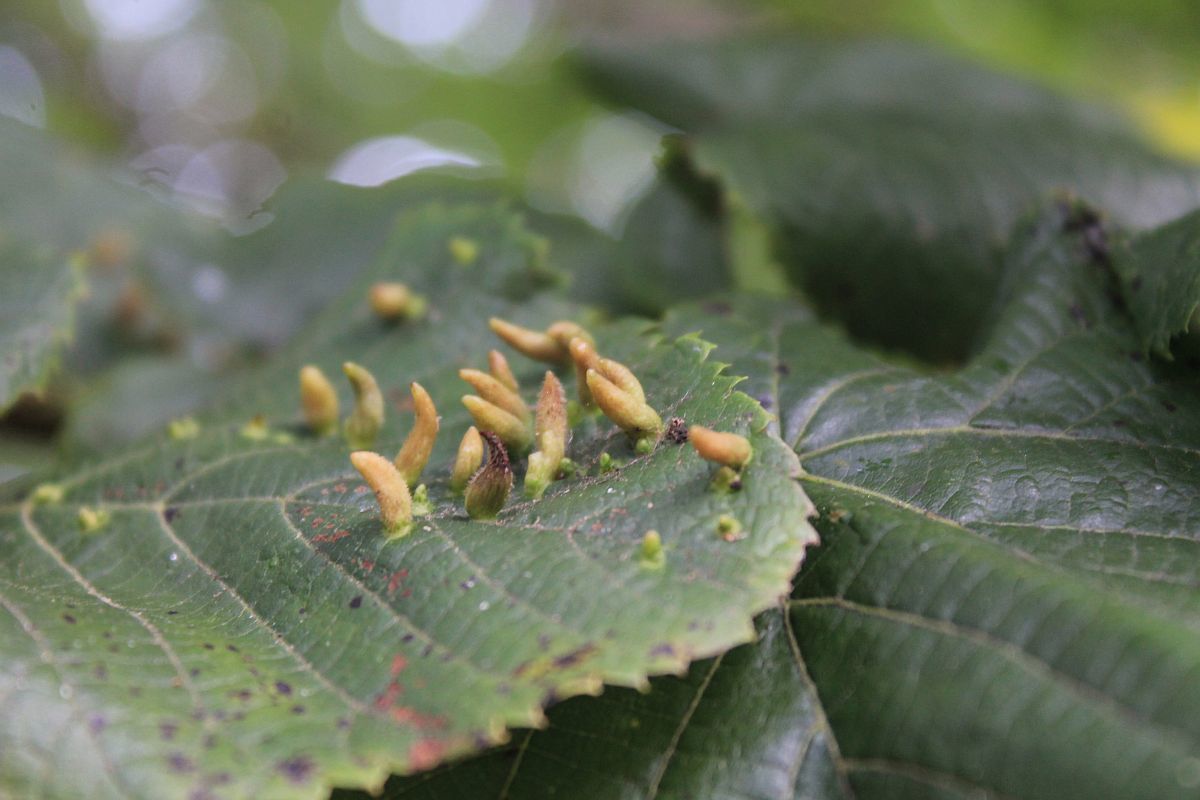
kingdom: Animalia
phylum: Arthropoda
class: Arachnida
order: Trombidiformes
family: Eriophyidae
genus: Eriophyes
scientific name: Eriophyes tiliae
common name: Red nail gall mite
